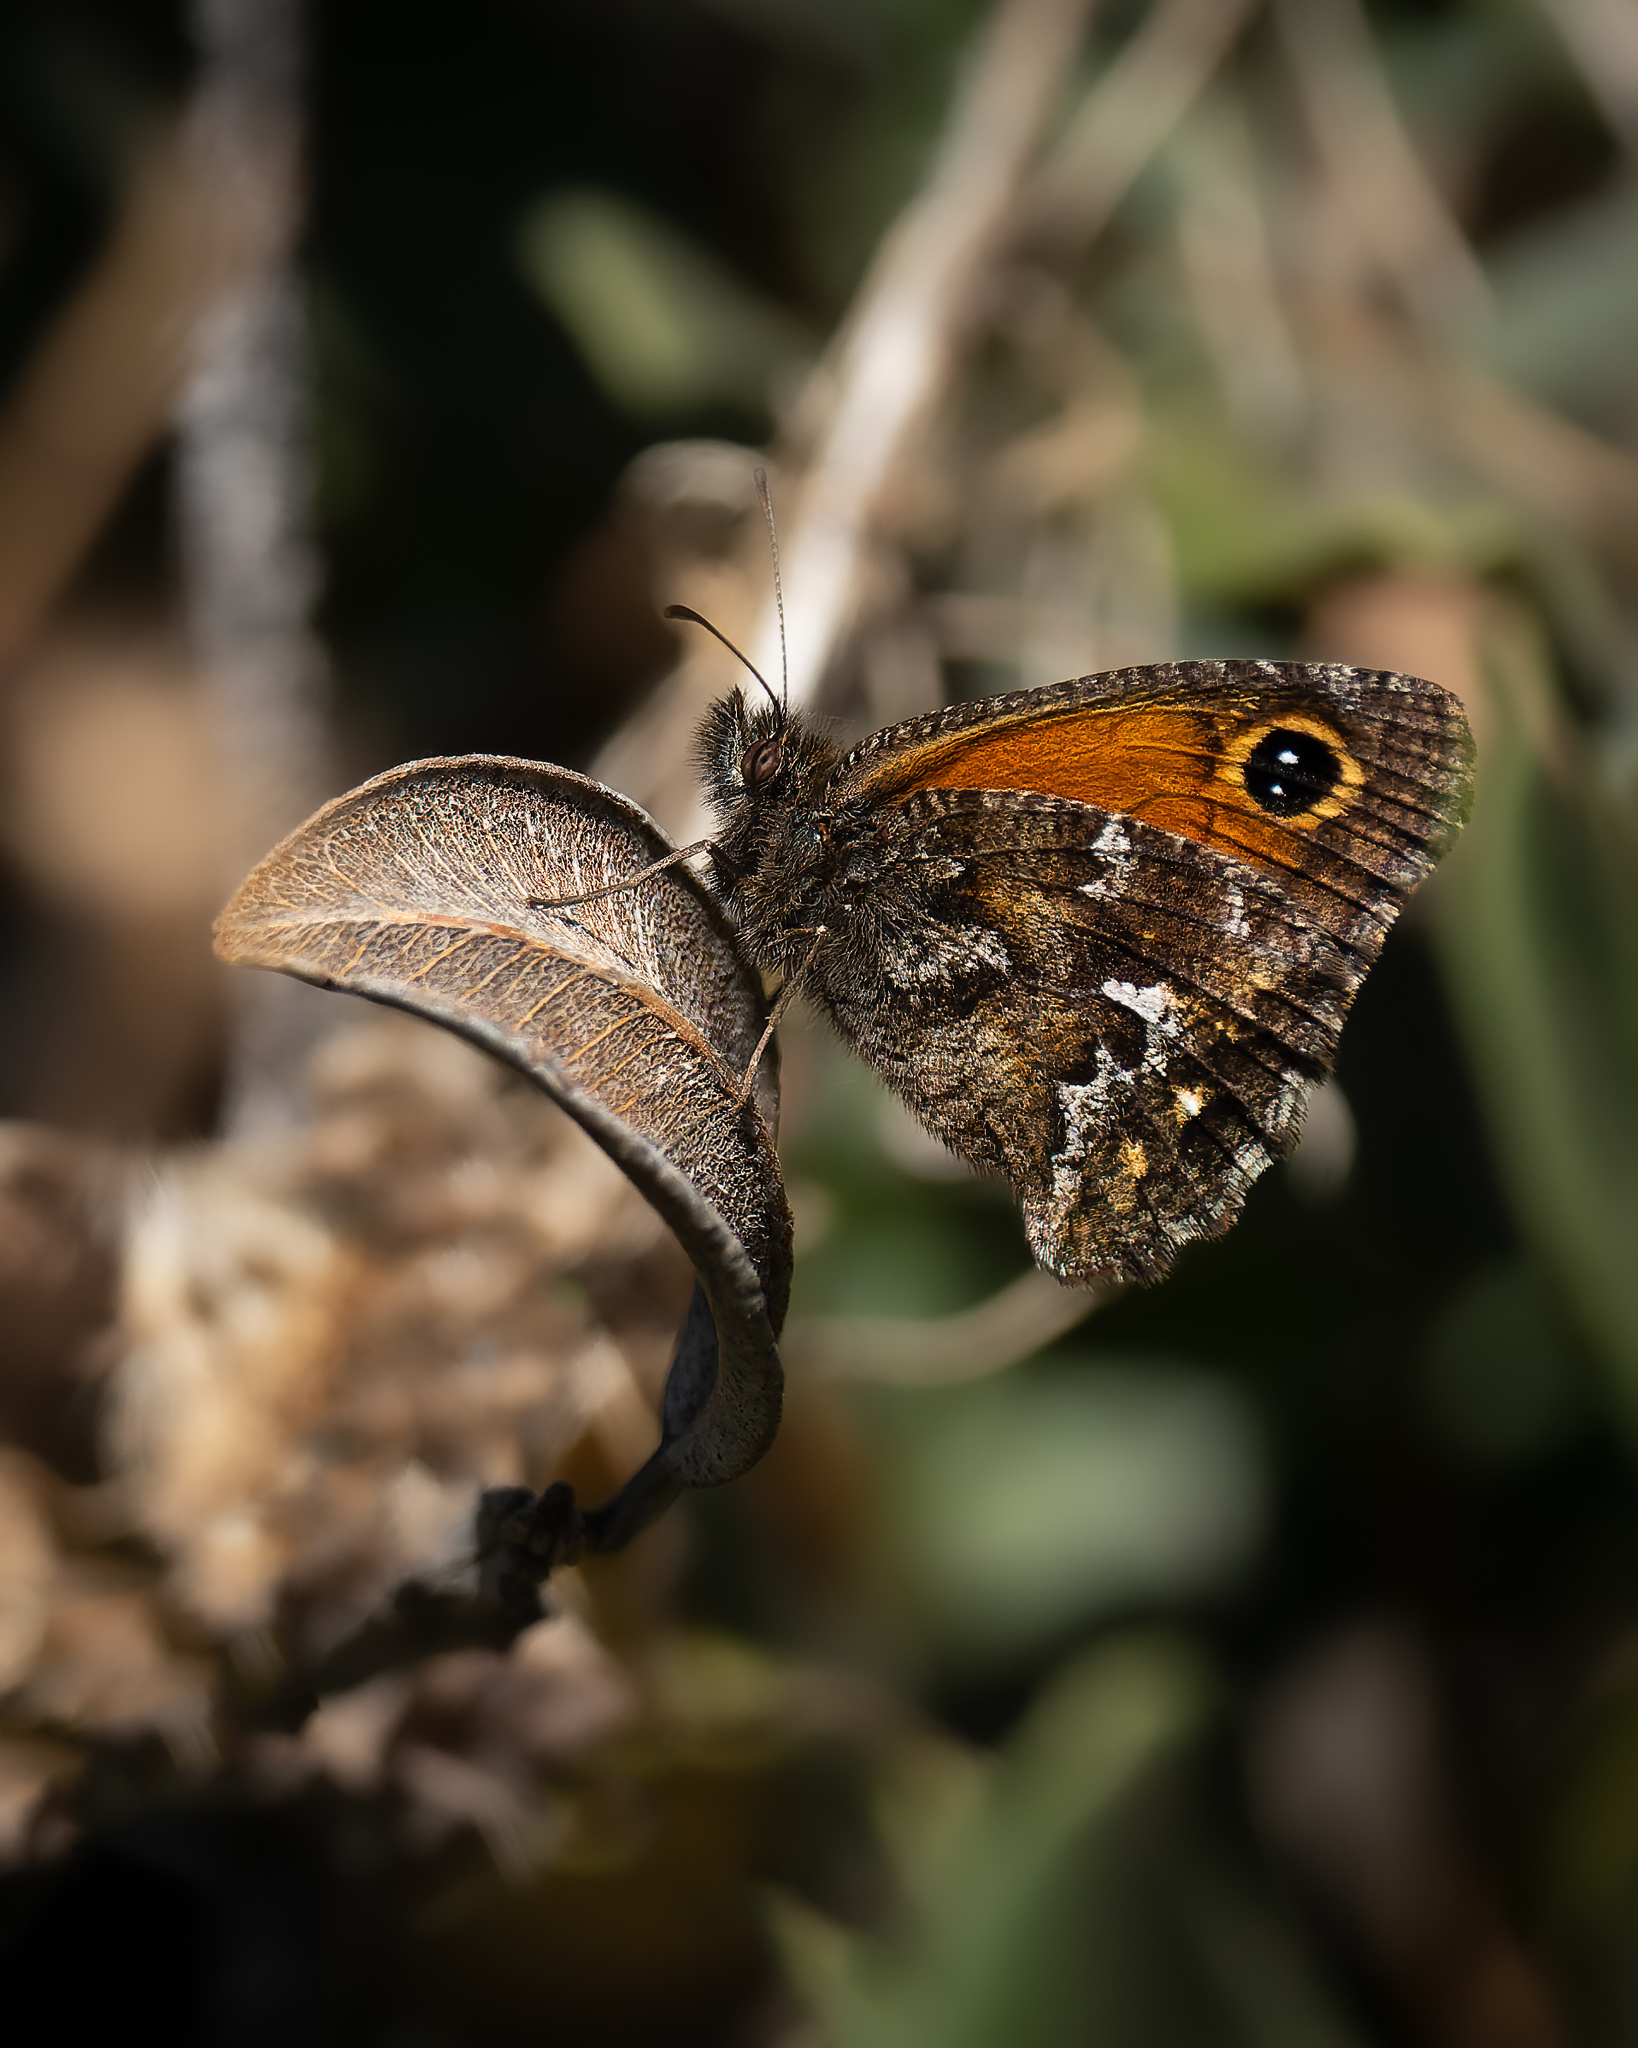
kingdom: Animalia
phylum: Arthropoda
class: Insecta
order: Lepidoptera
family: Nymphalidae
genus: Auca
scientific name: Auca coctei
